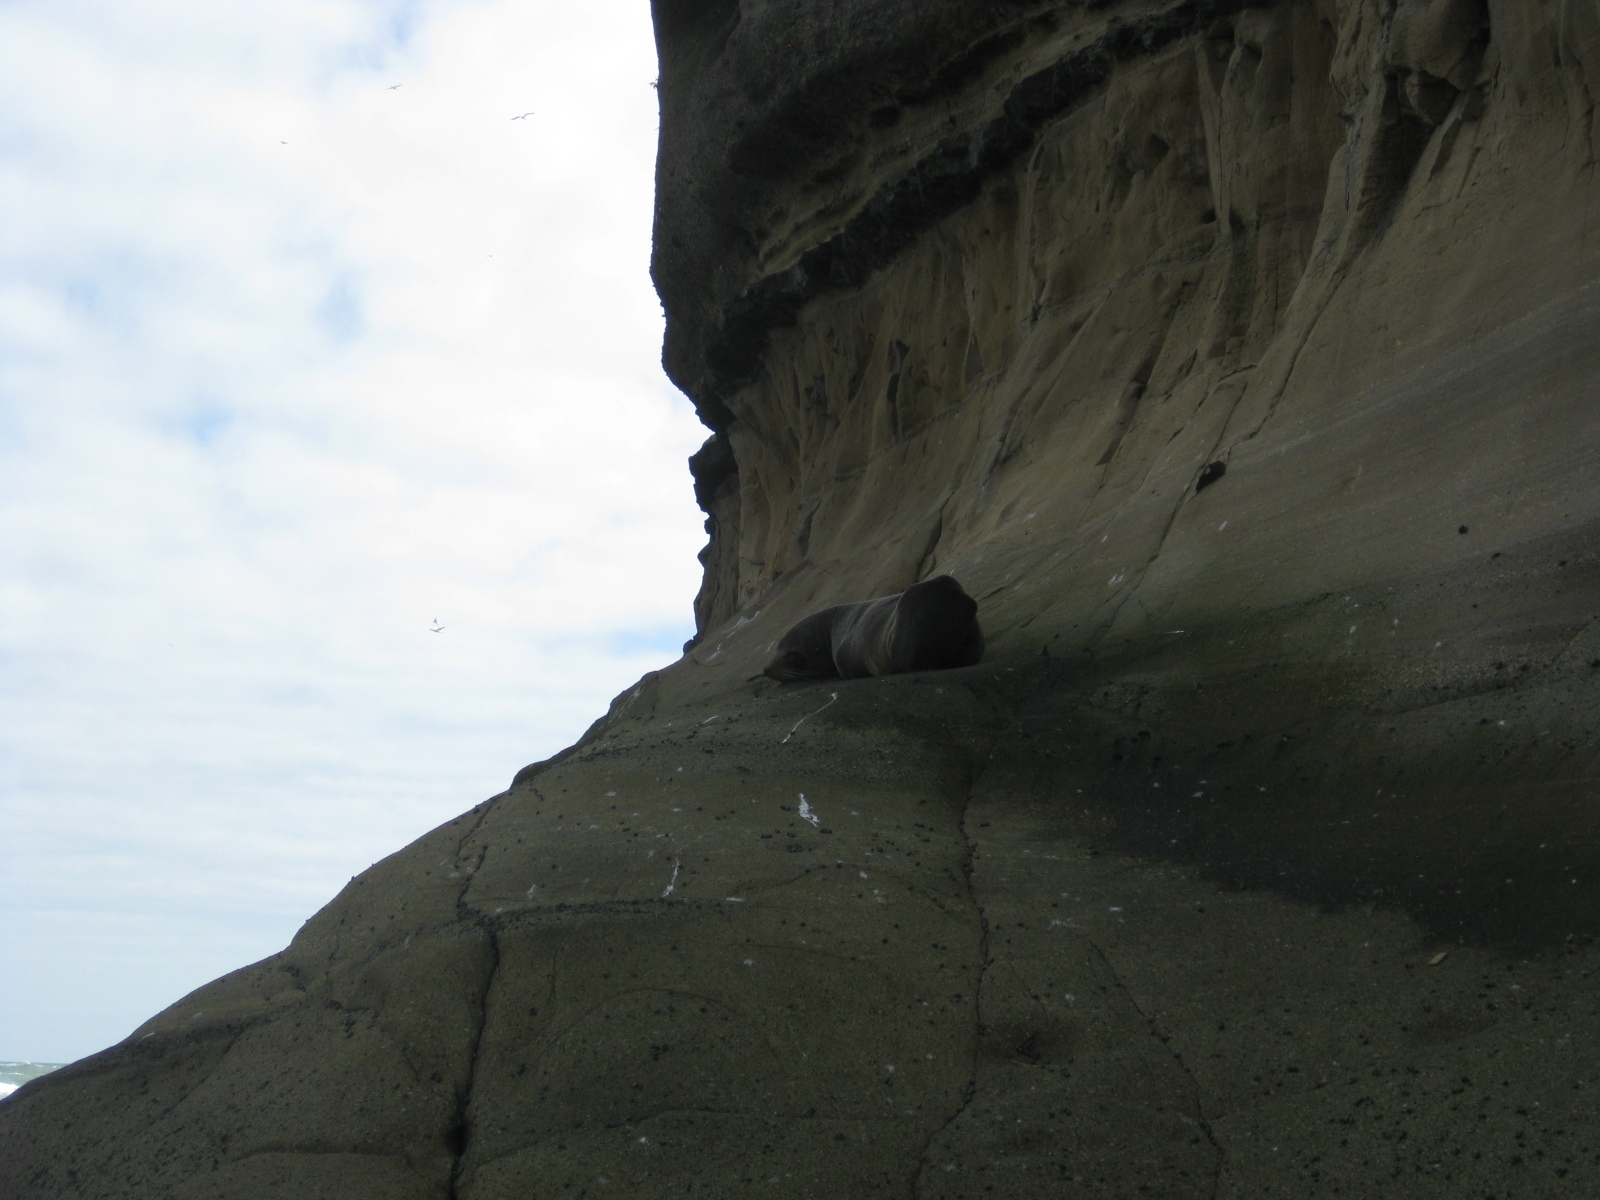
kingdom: Animalia
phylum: Chordata
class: Mammalia
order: Carnivora
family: Otariidae
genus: Arctocephalus
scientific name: Arctocephalus forsteri
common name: New zealand fur seal
